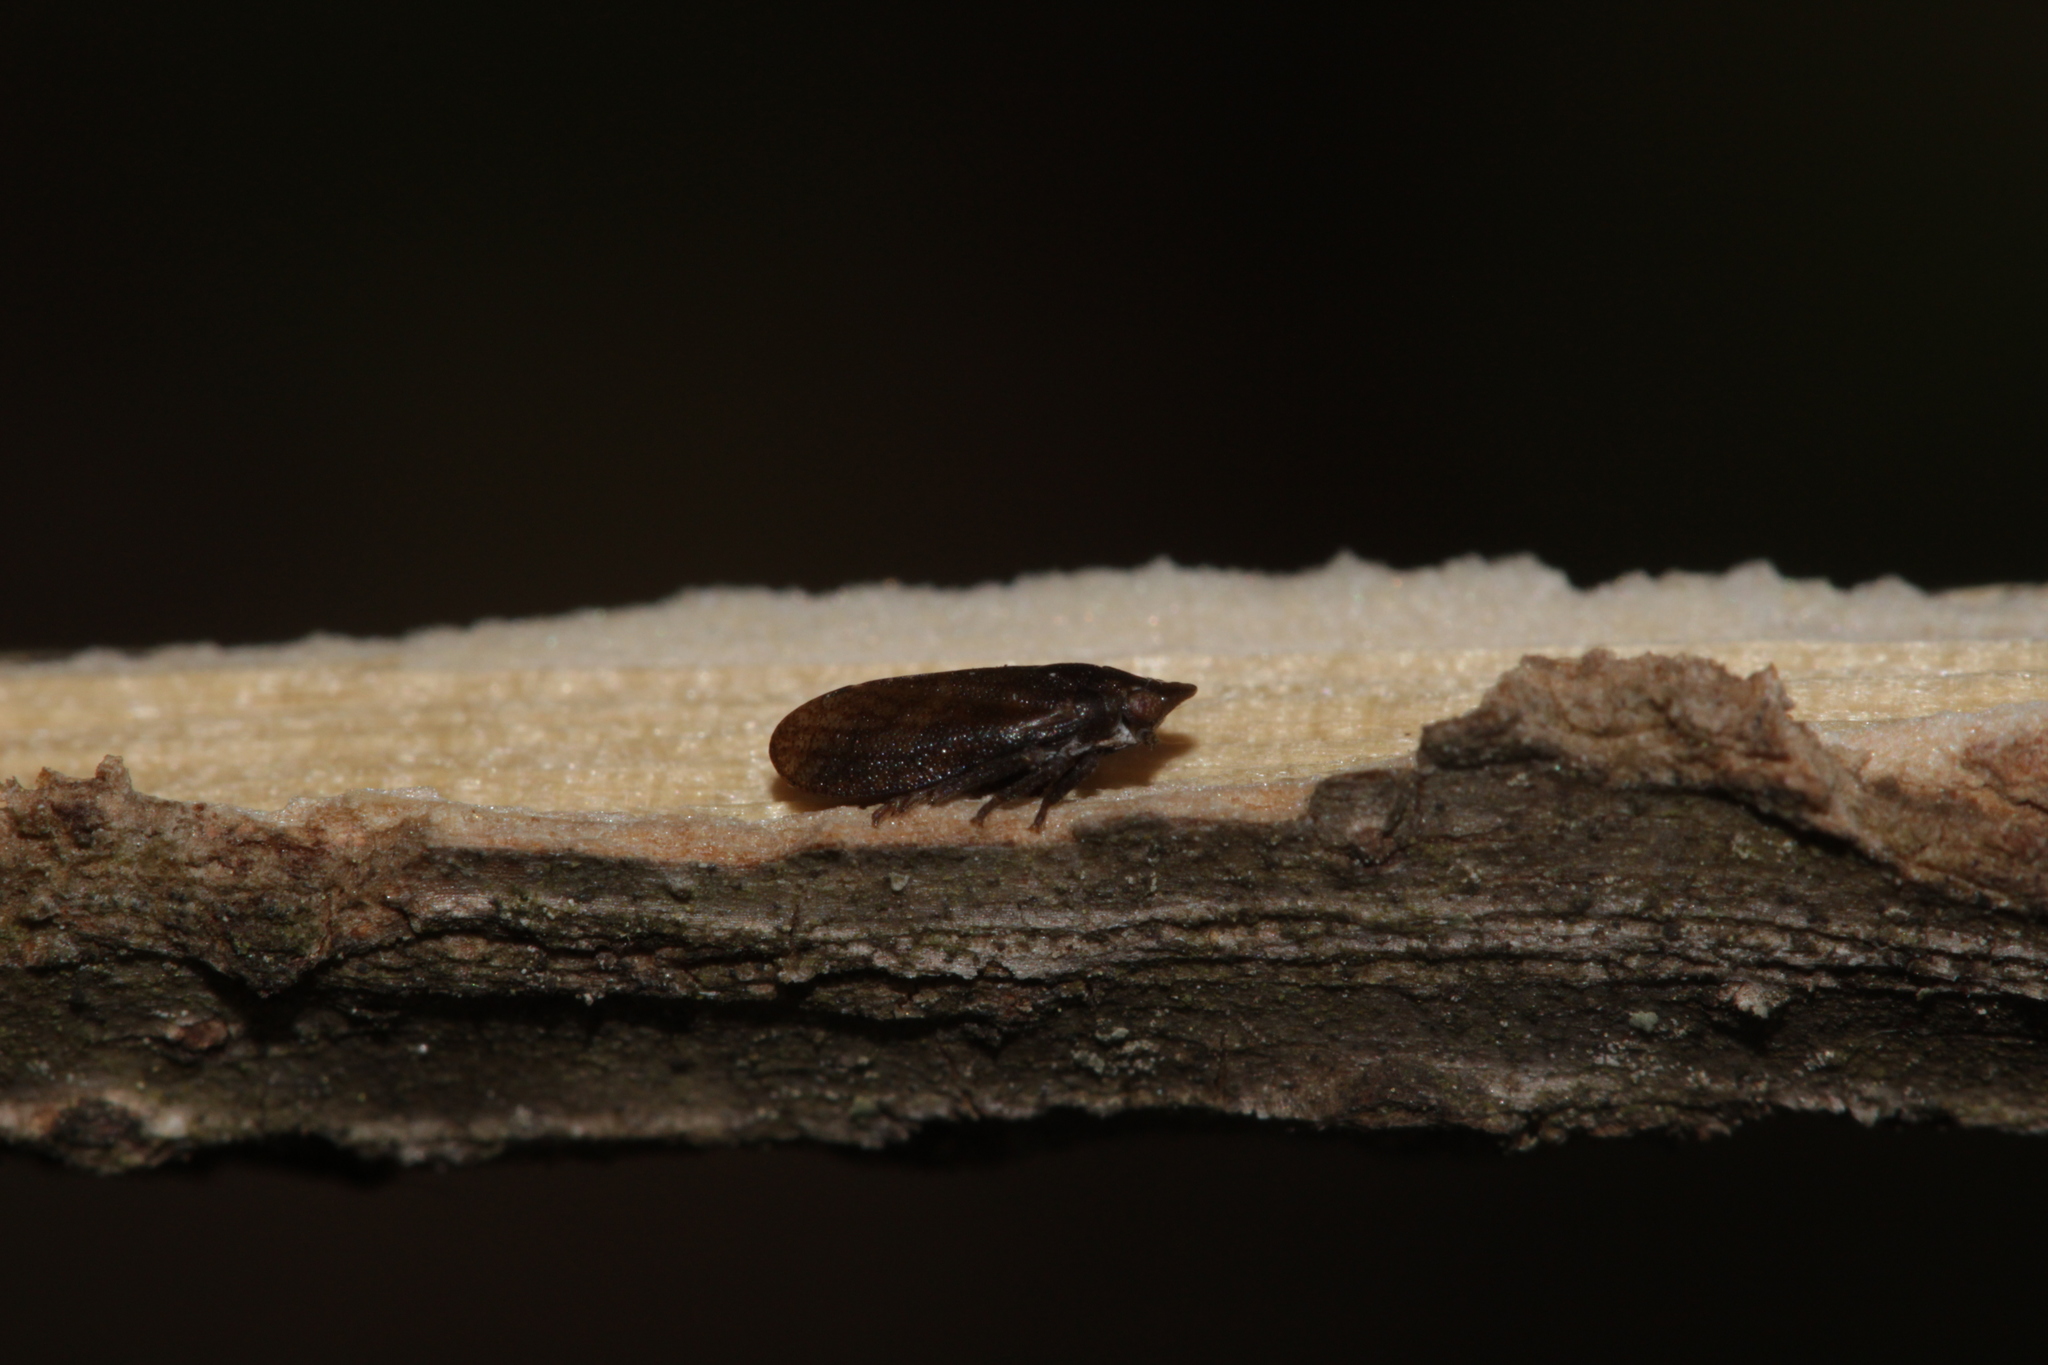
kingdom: Animalia
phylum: Arthropoda
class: Insecta
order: Hemiptera
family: Tettigometridae
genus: Tettigometra
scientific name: Tettigometra fusca
